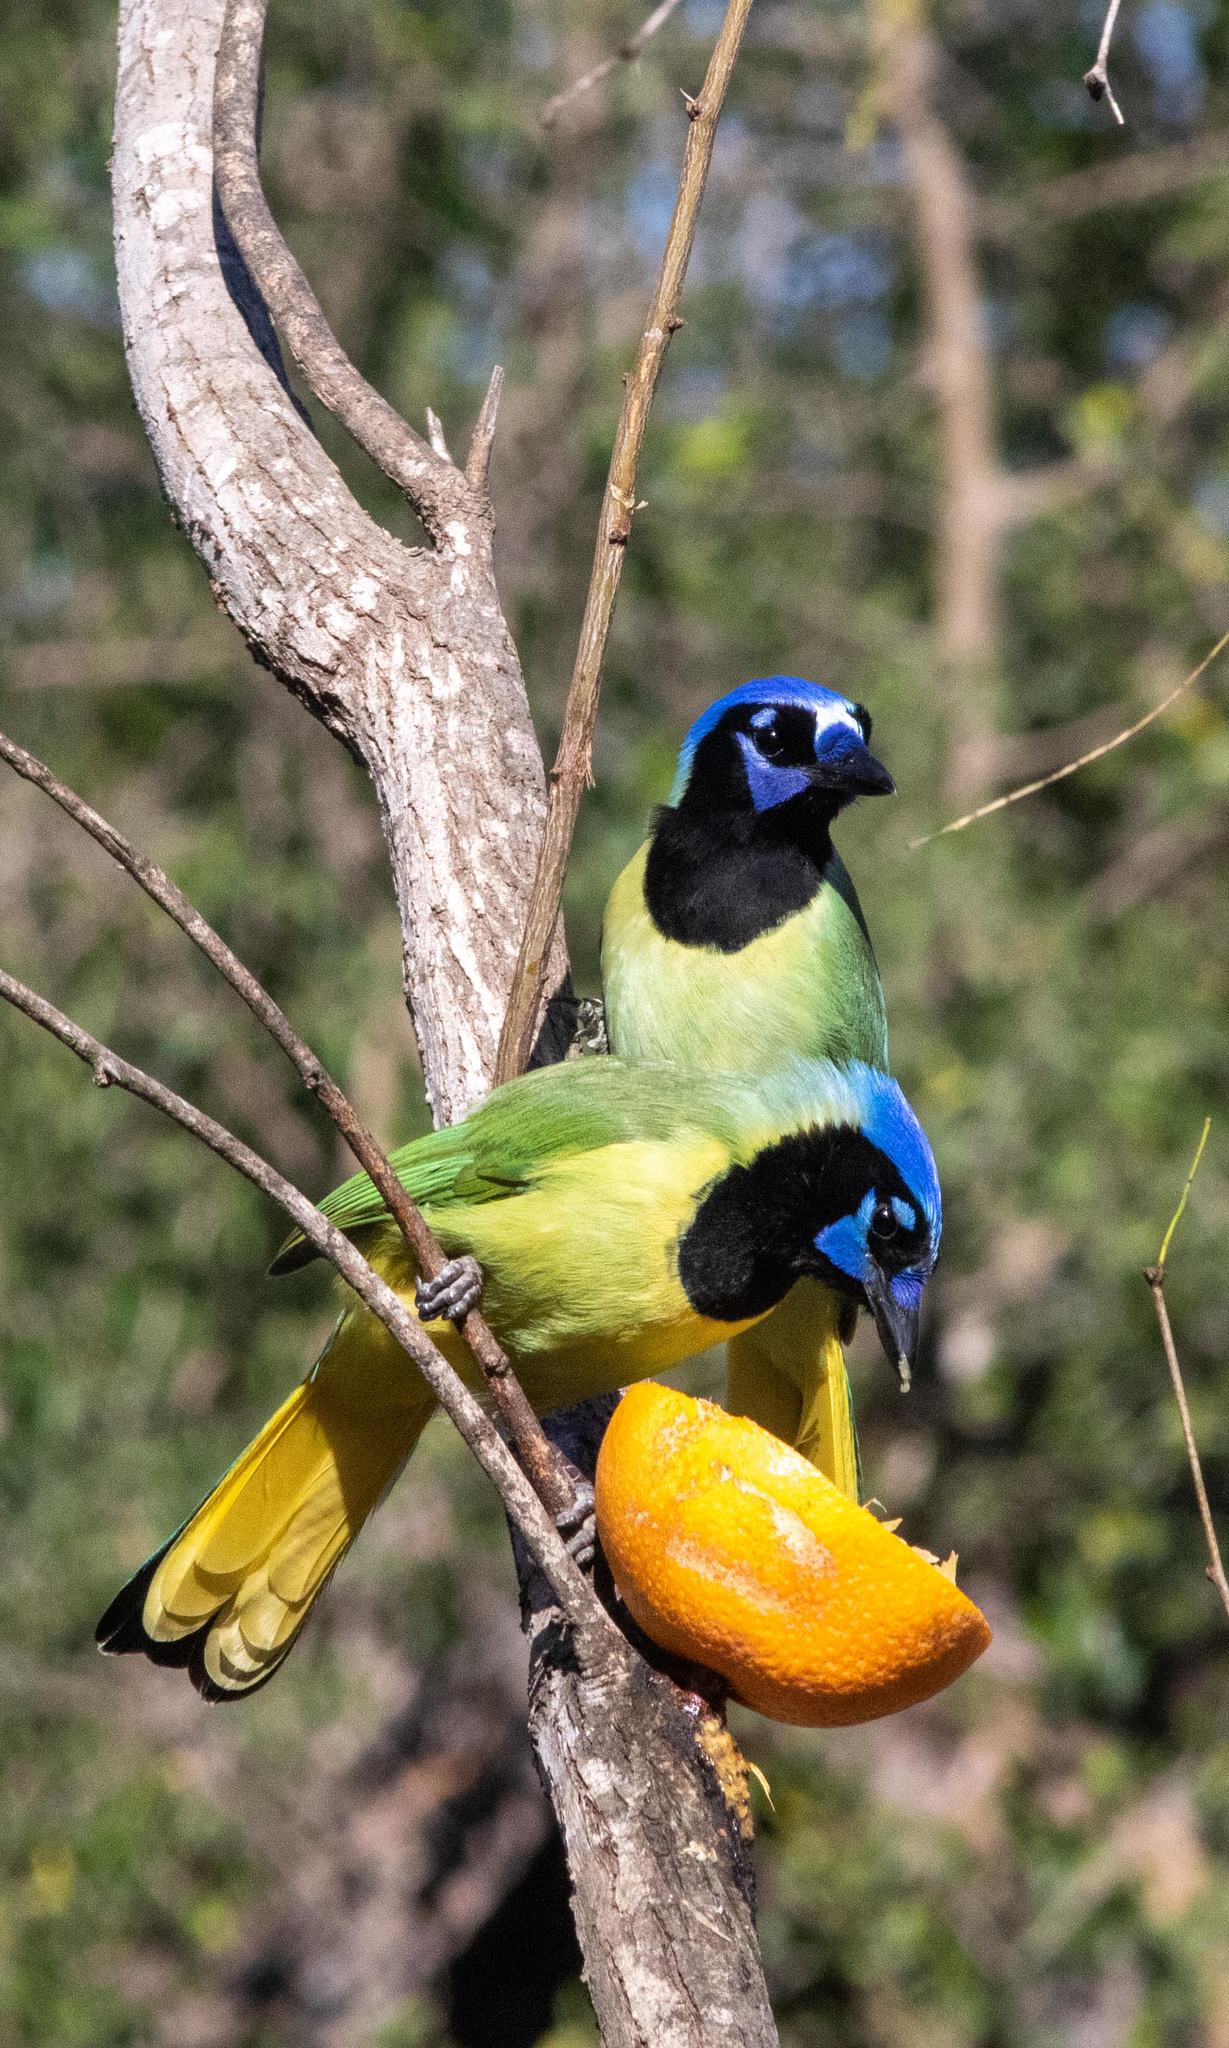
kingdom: Animalia
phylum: Chordata
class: Aves
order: Passeriformes
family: Corvidae
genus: Cyanocorax
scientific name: Cyanocorax yncas
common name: Green jay
